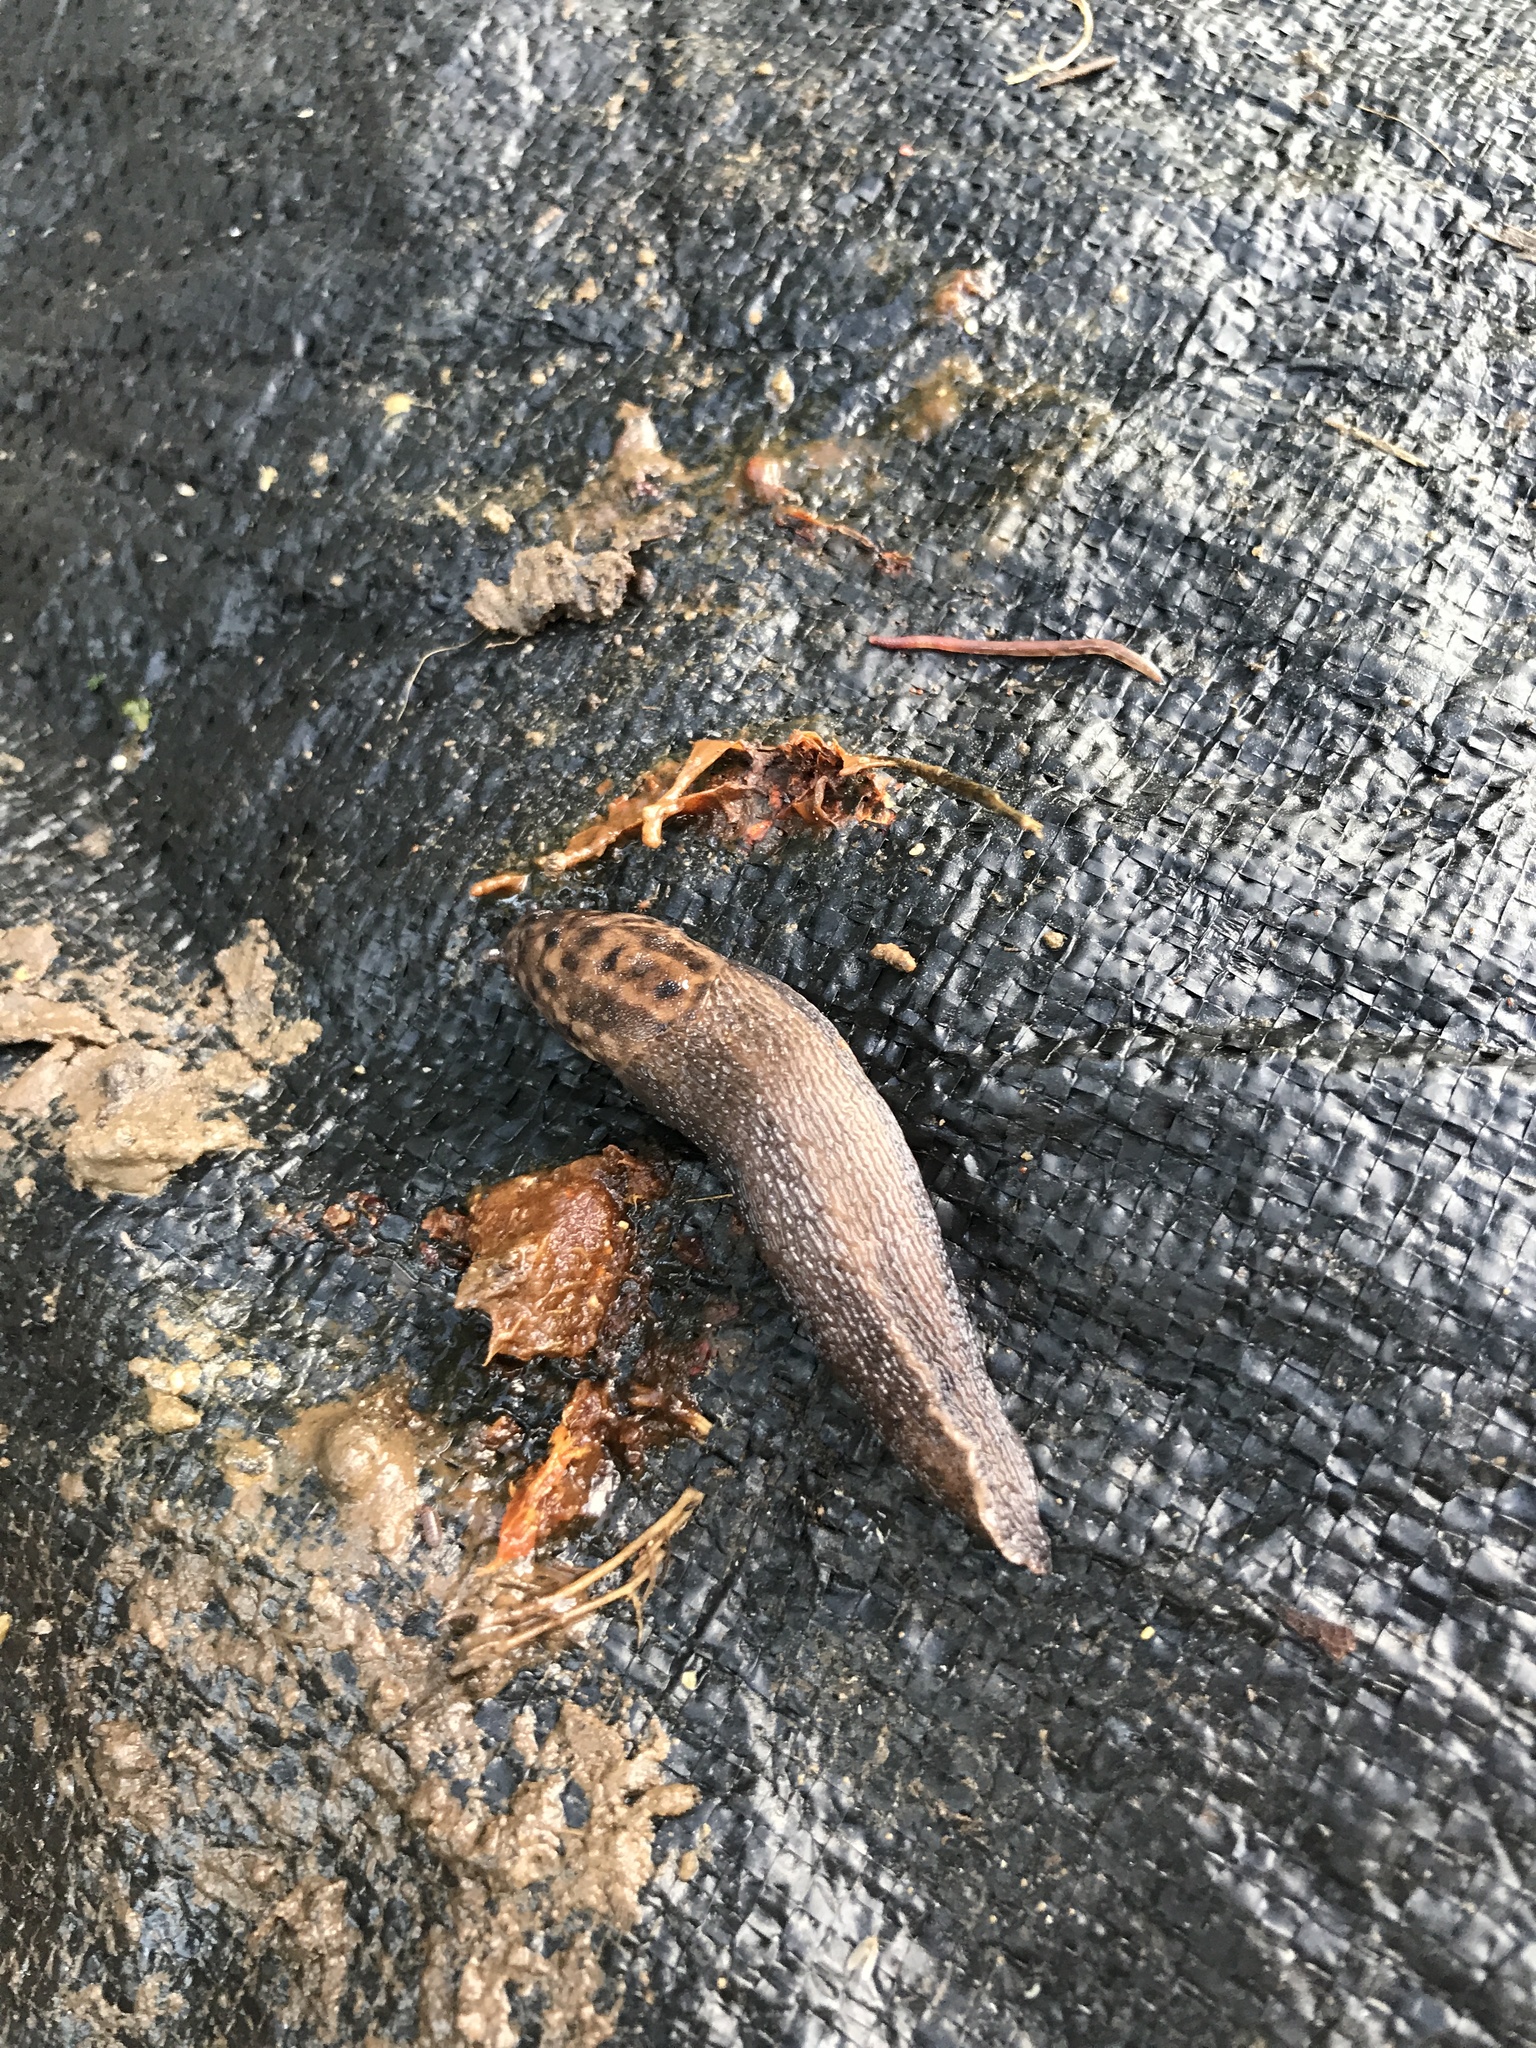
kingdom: Animalia
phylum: Mollusca
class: Gastropoda
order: Stylommatophora
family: Limacidae
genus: Limax
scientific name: Limax maximus
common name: Great grey slug
